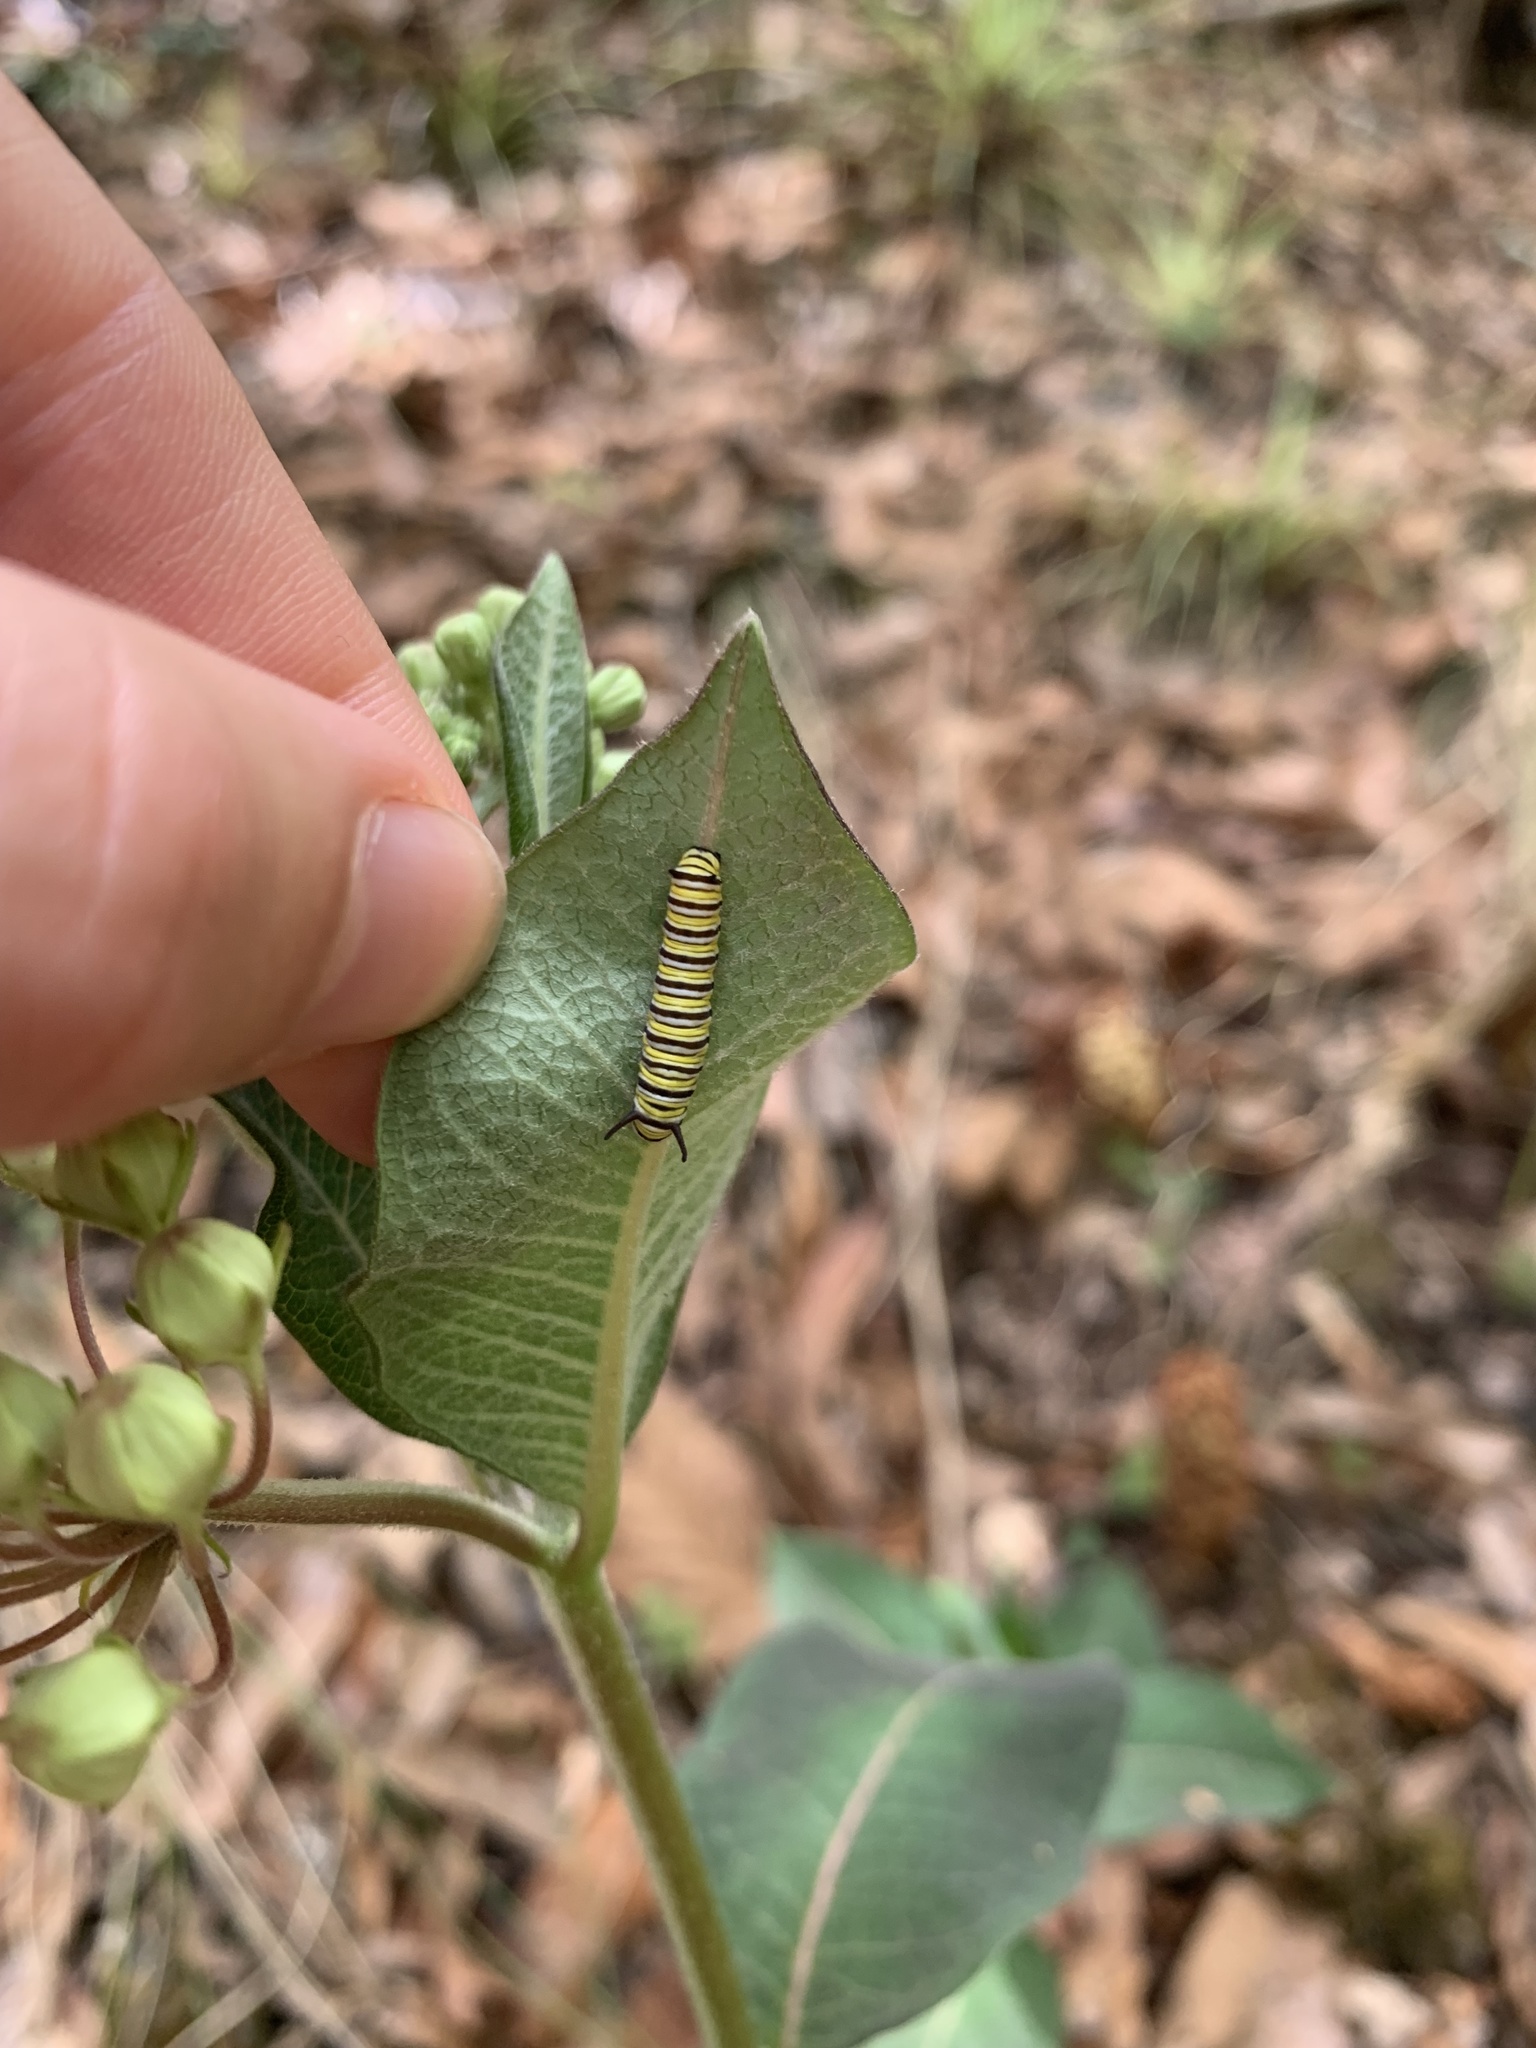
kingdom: Animalia
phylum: Arthropoda
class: Insecta
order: Lepidoptera
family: Nymphalidae
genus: Danaus
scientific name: Danaus plexippus
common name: Monarch
